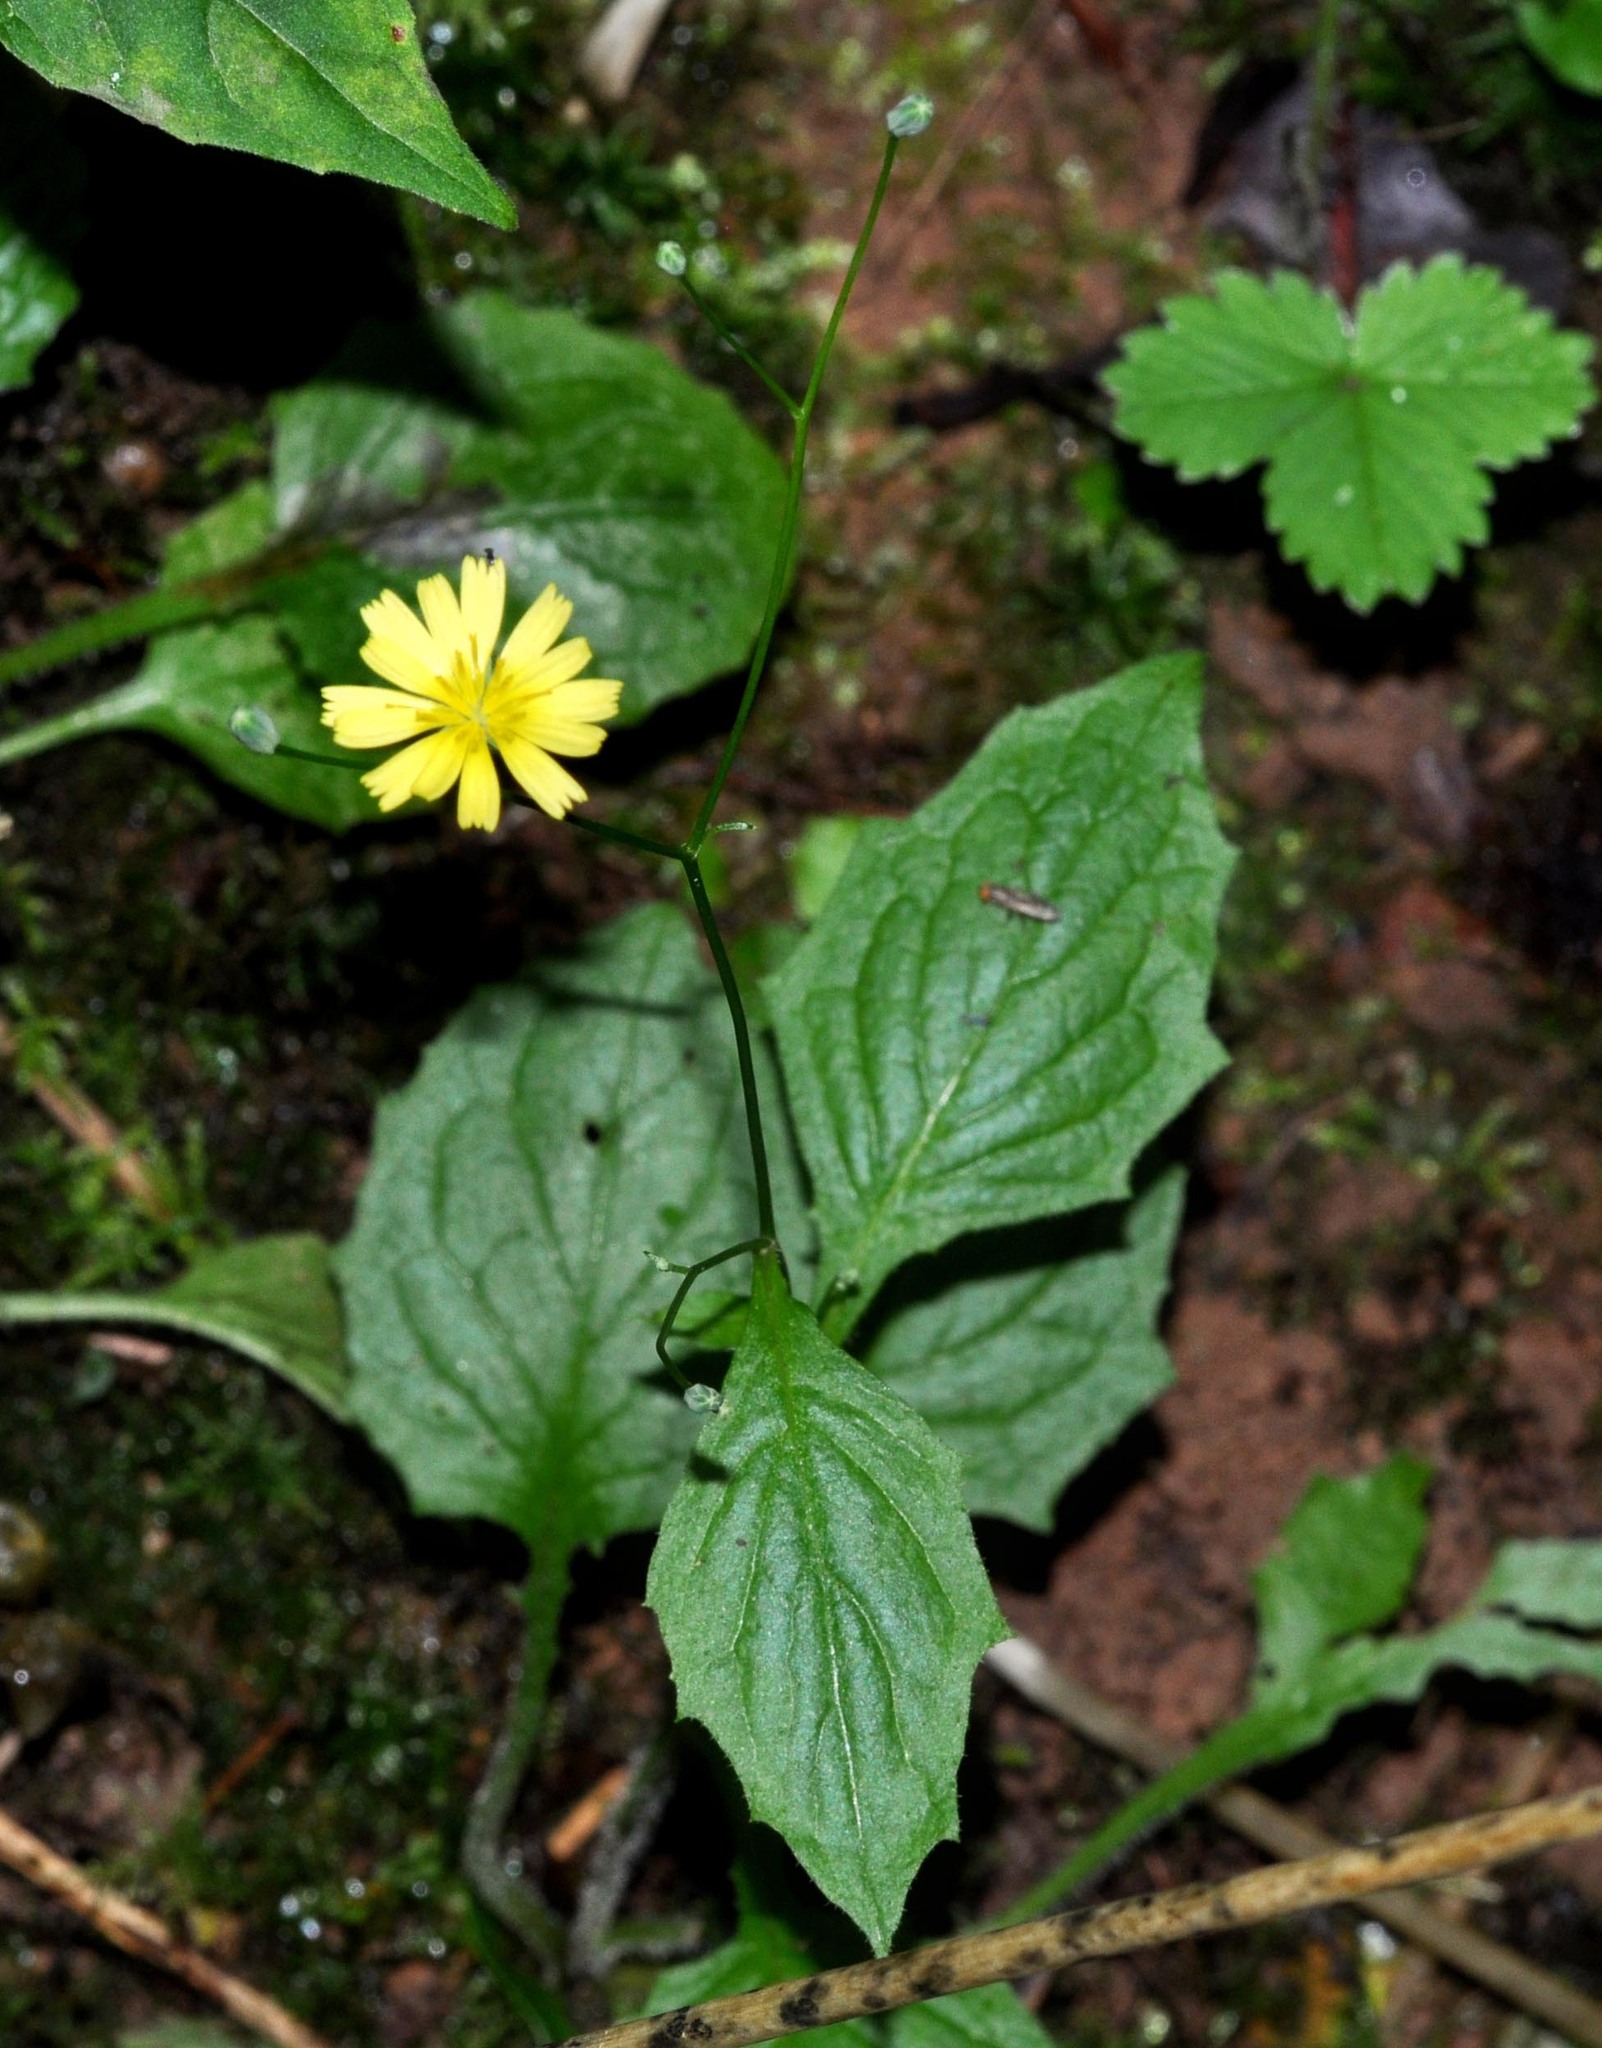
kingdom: Plantae
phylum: Tracheophyta
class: Magnoliopsida
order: Asterales
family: Asteraceae
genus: Lapsana
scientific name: Lapsana communis
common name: Nipplewort
